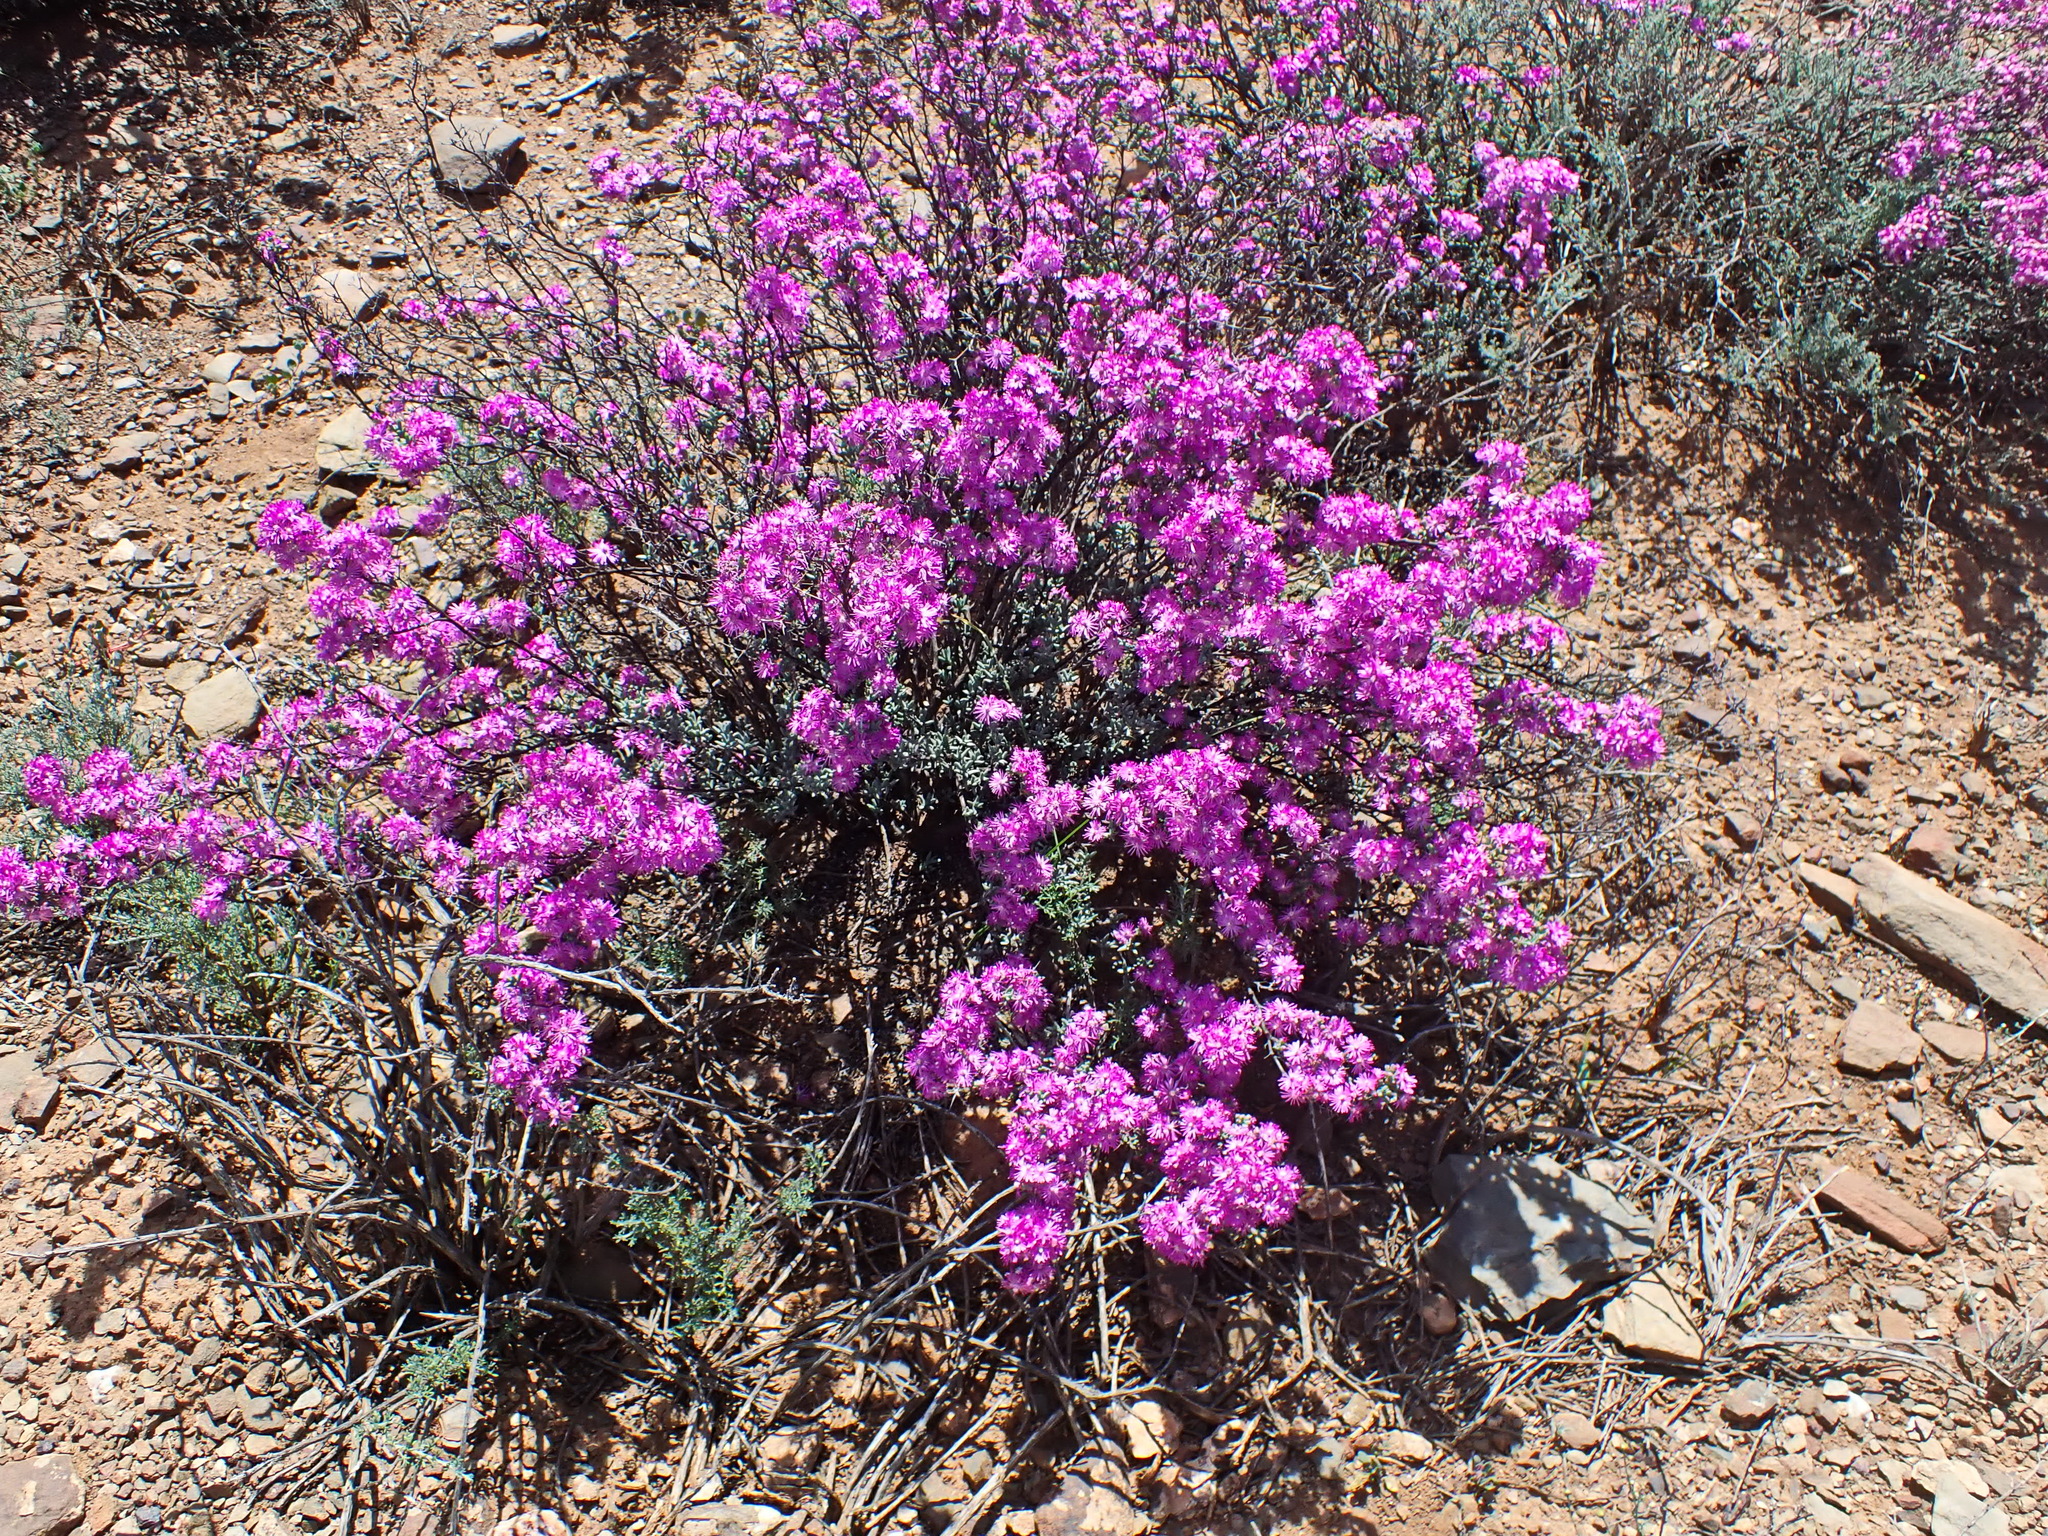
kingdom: Plantae
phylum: Tracheophyta
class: Magnoliopsida
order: Caryophyllales
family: Aizoaceae
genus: Ruschia
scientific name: Ruschia cradockensis
